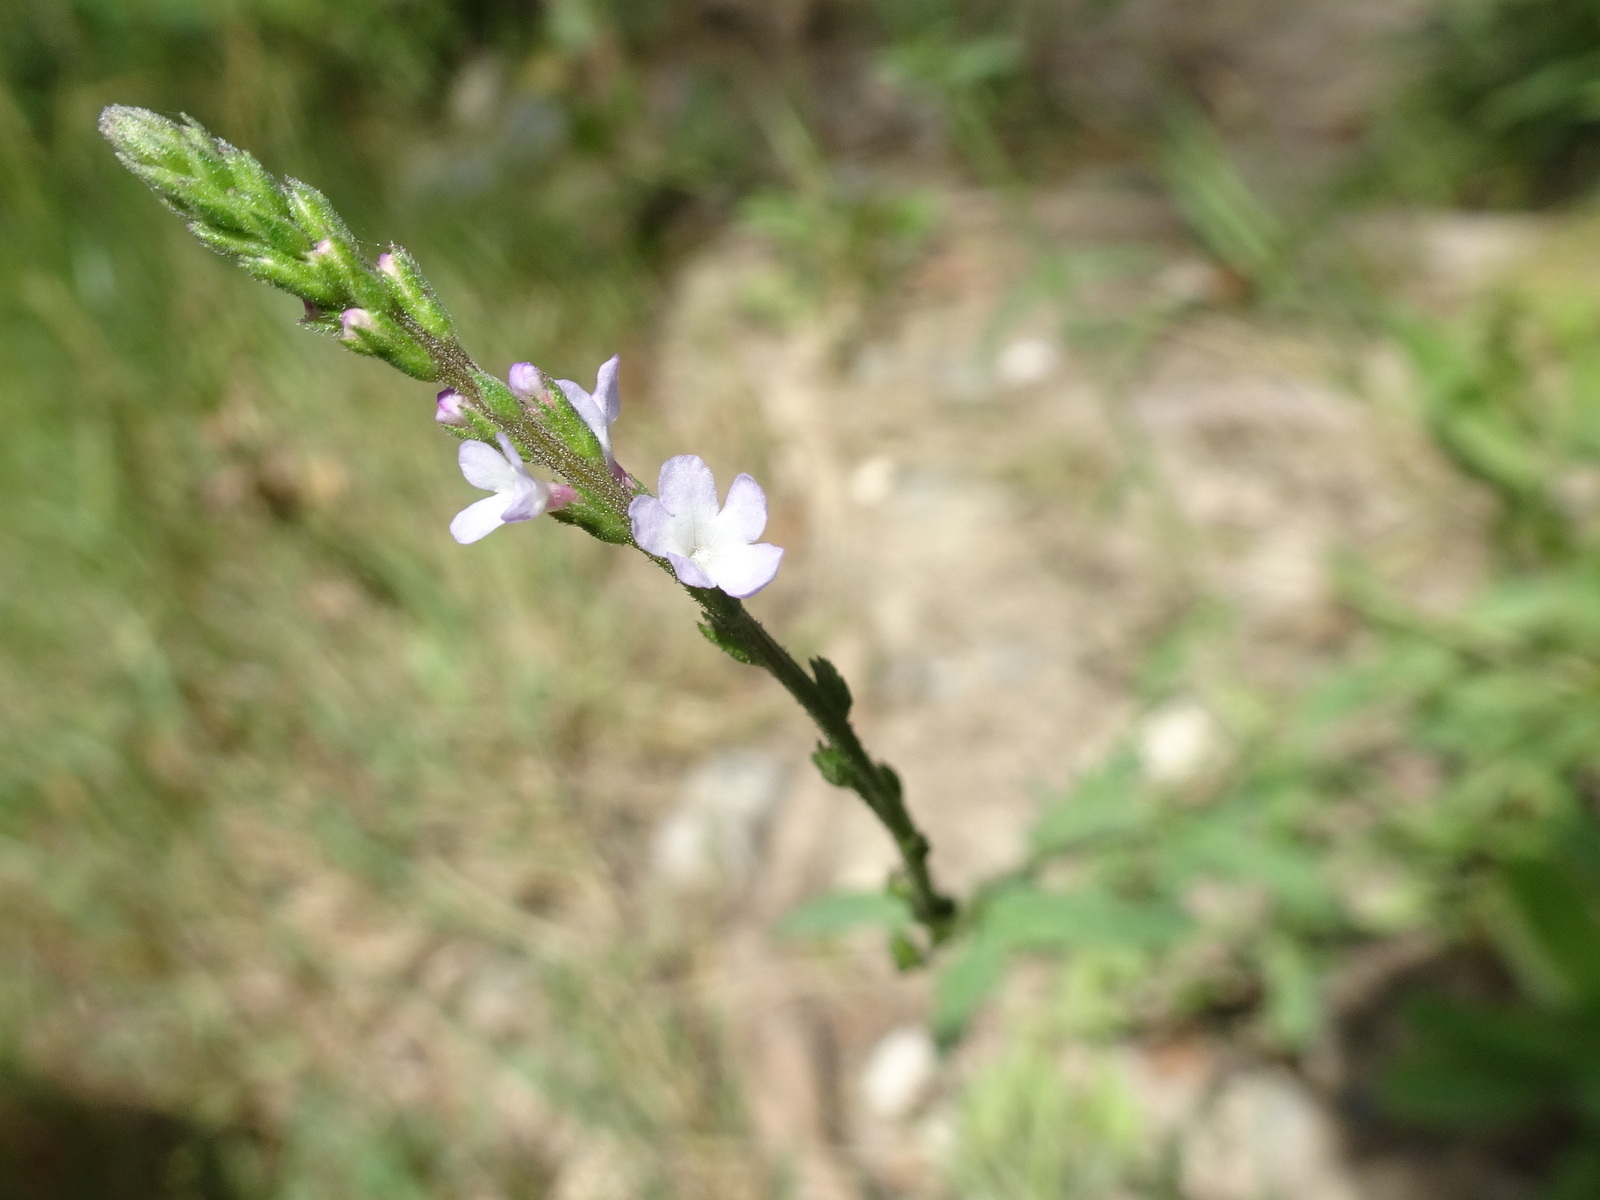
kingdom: Plantae
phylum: Tracheophyta
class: Magnoliopsida
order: Lamiales
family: Verbenaceae
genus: Verbena
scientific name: Verbena officinalis
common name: Vervain
